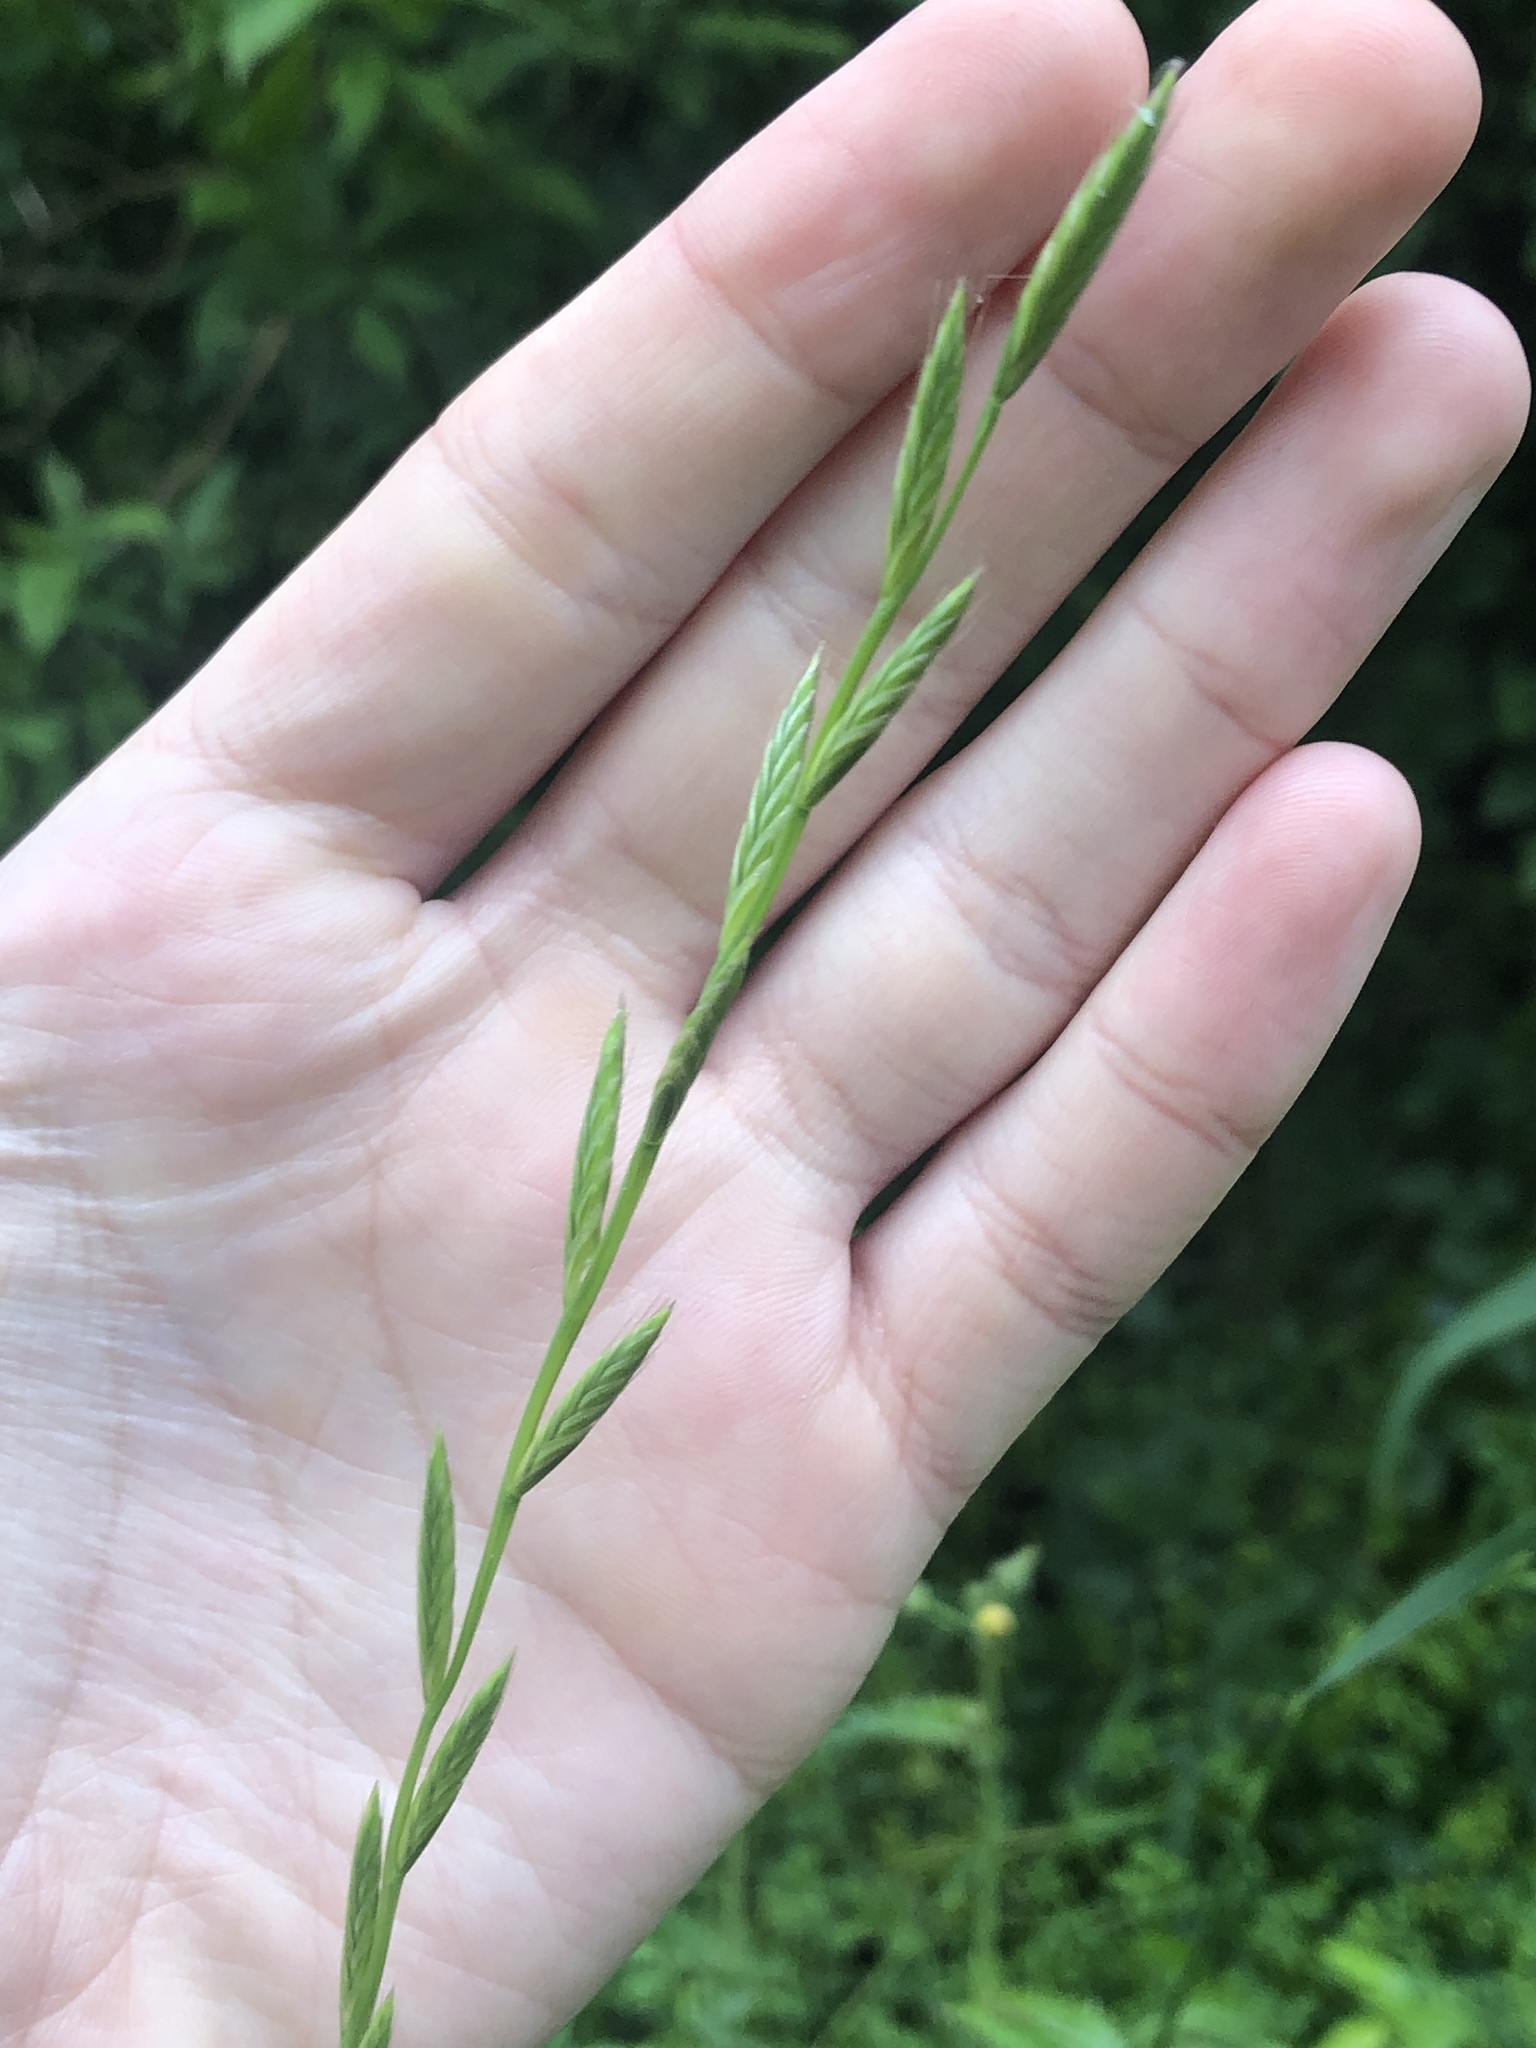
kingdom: Plantae
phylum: Tracheophyta
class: Liliopsida
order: Poales
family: Poaceae
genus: Lolium
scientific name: Lolium perenne
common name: Perennial ryegrass
